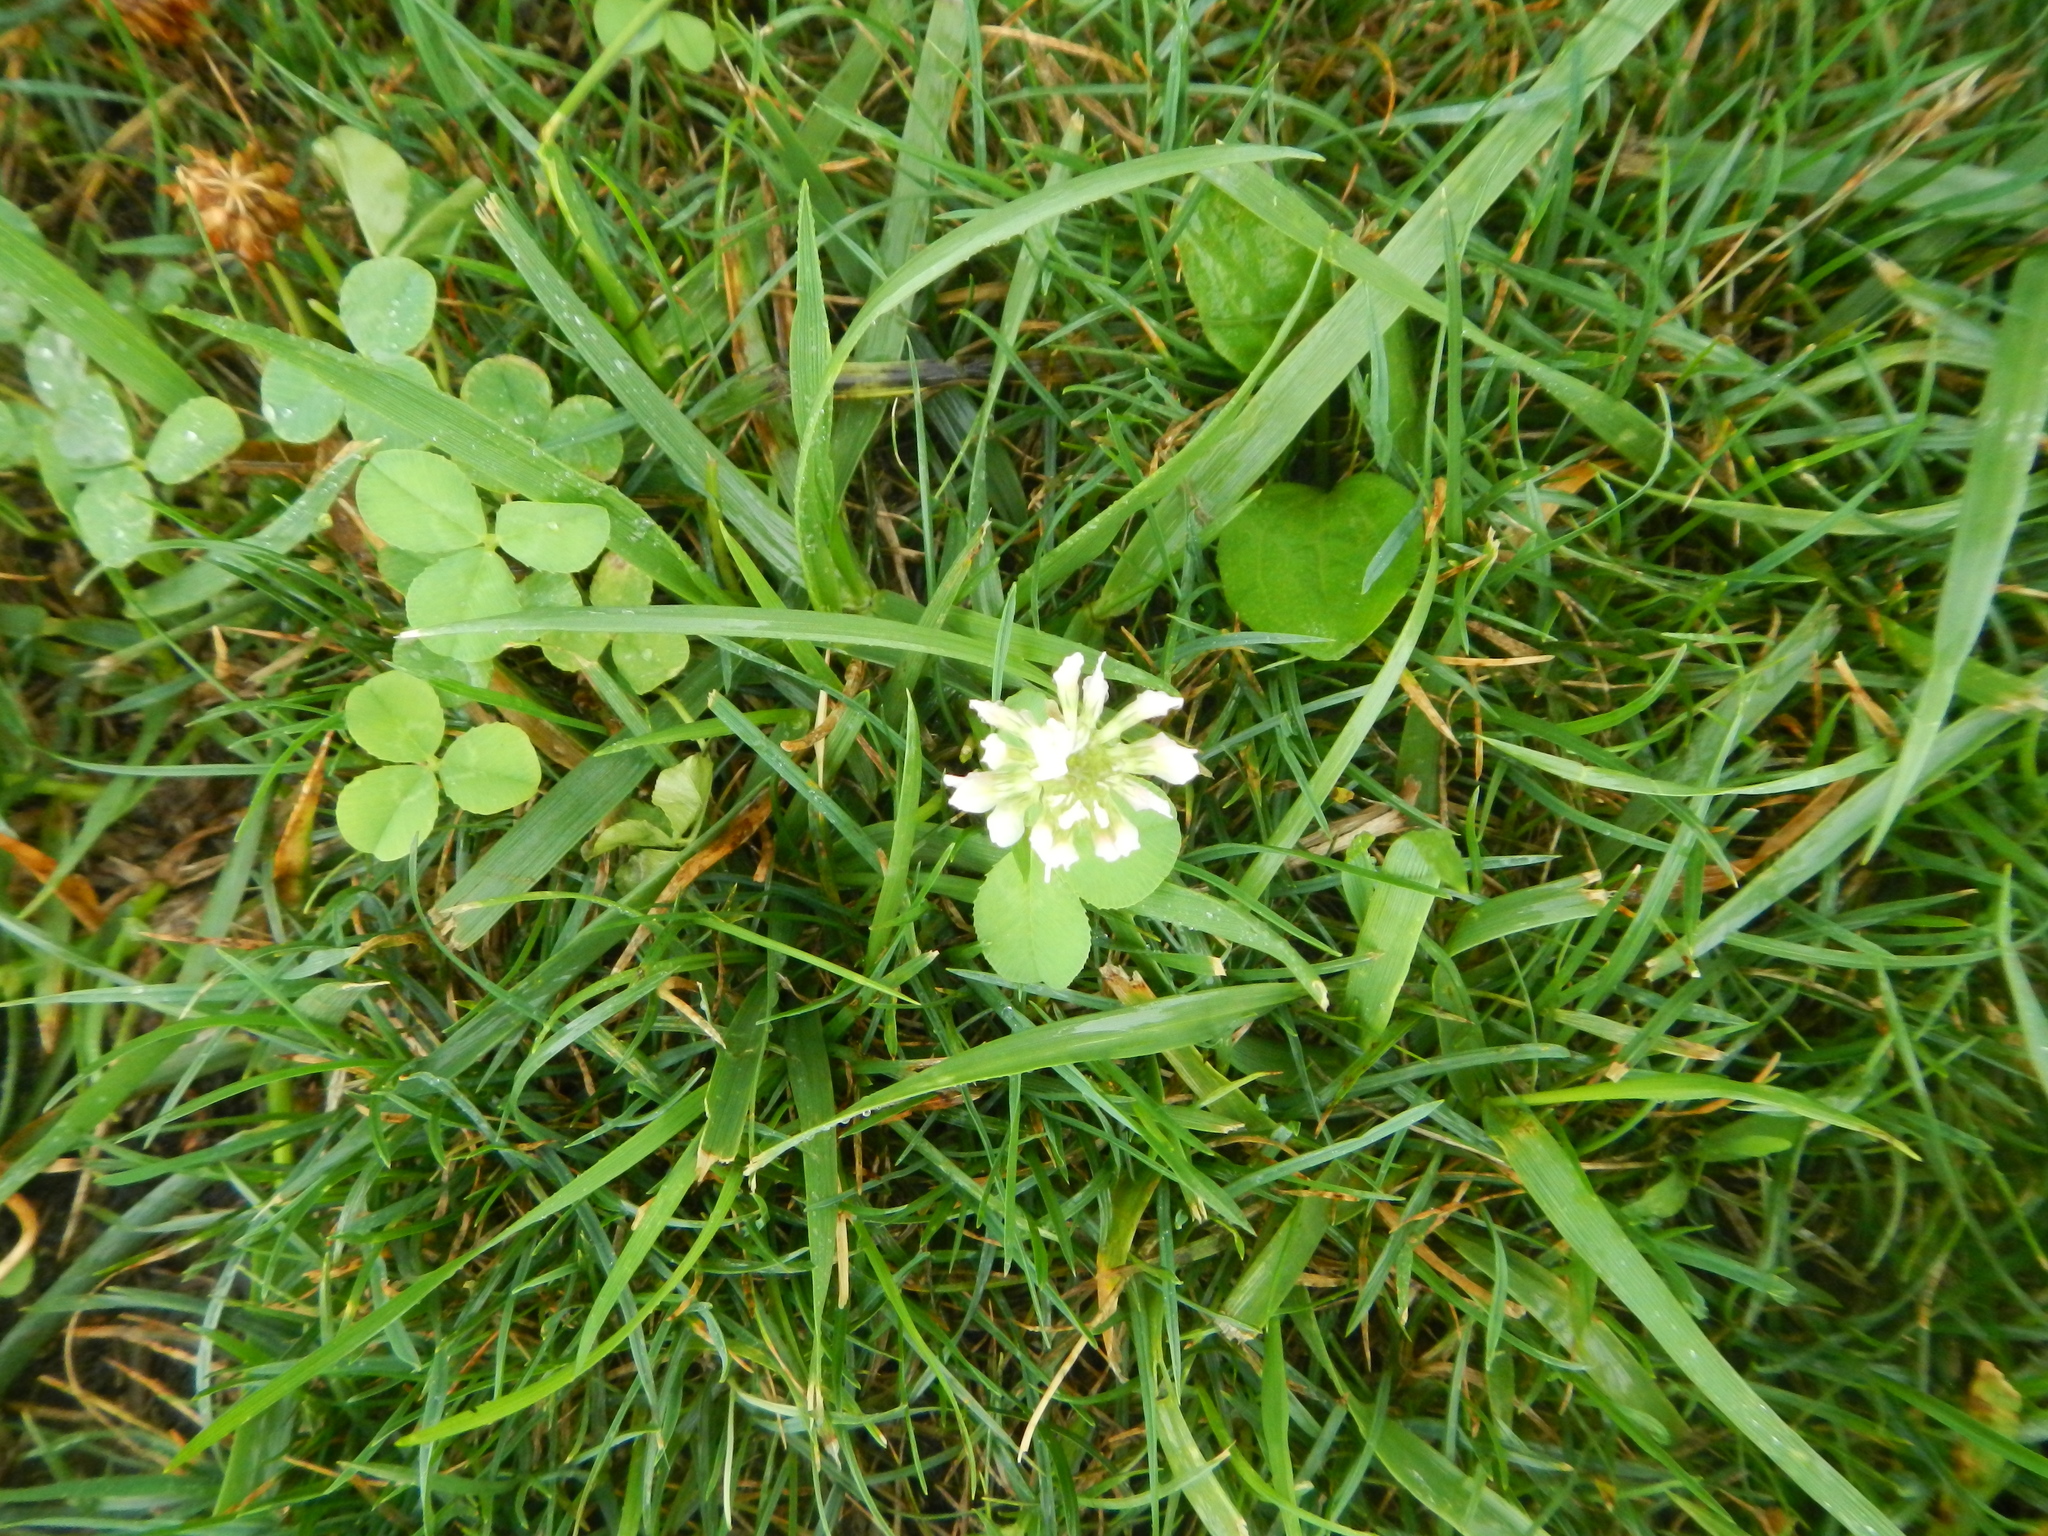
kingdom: Plantae
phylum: Tracheophyta
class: Magnoliopsida
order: Fabales
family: Fabaceae
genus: Trifolium
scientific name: Trifolium repens
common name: White clover
